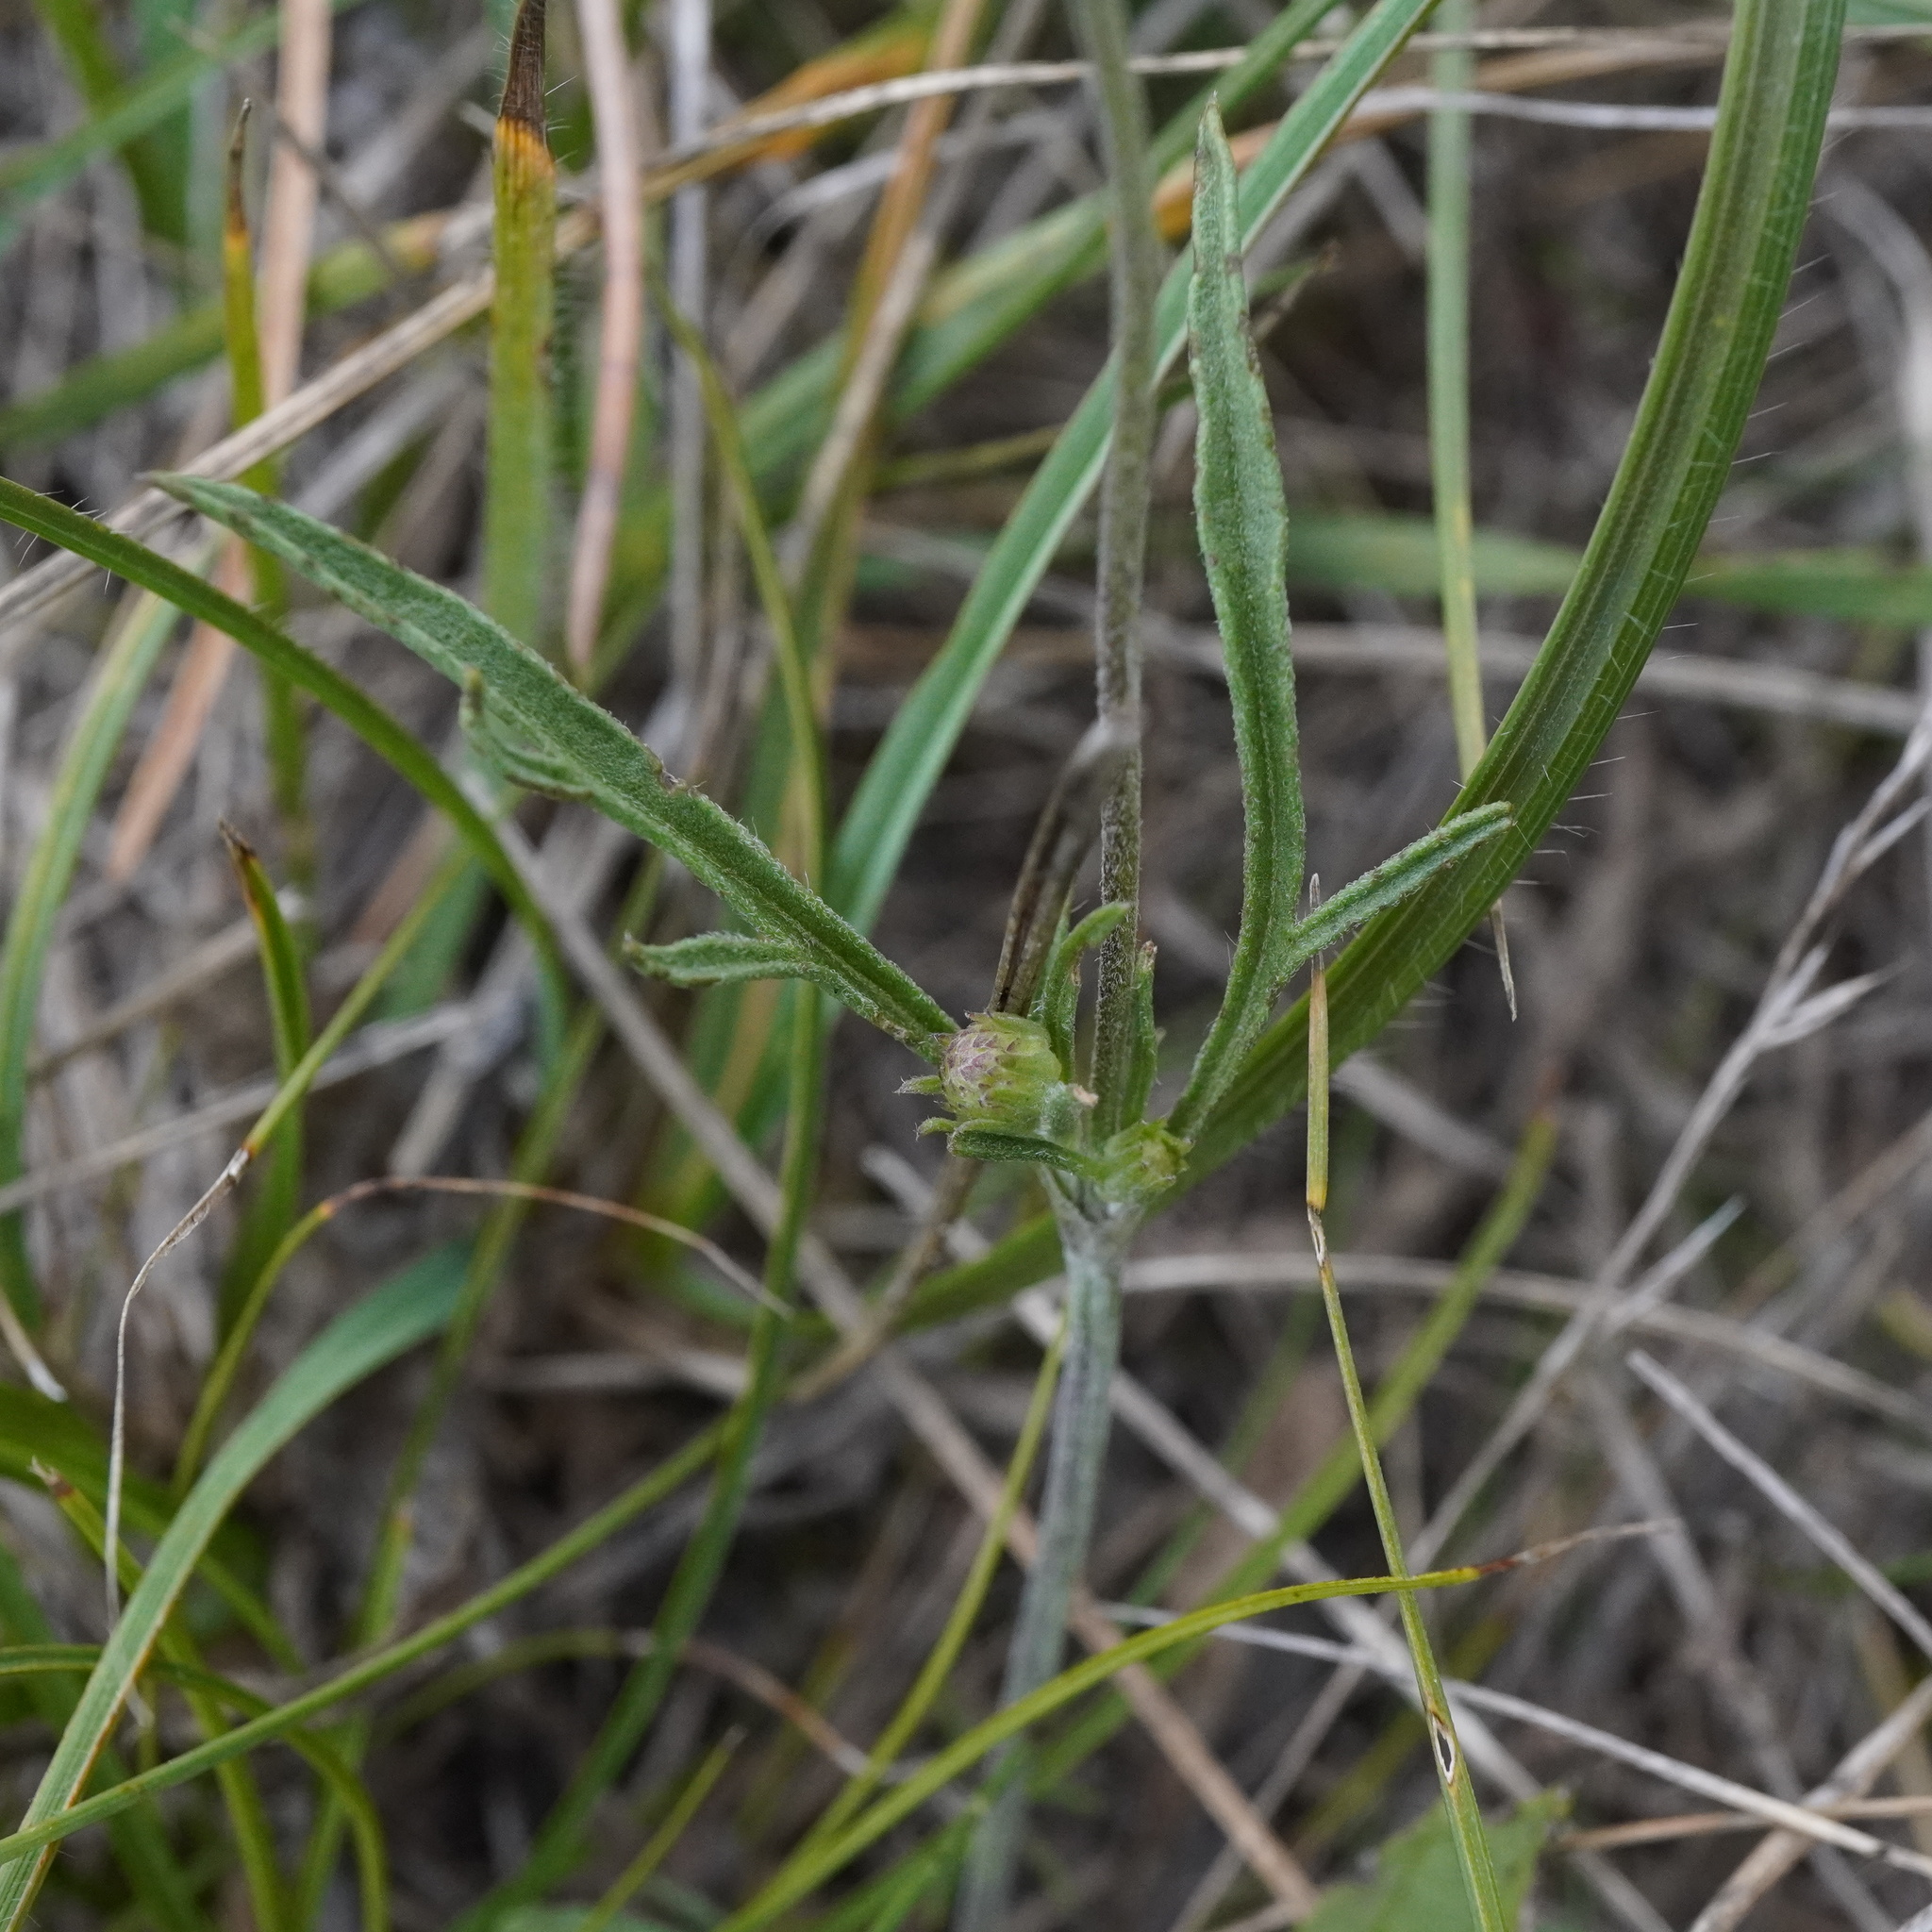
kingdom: Plantae
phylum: Tracheophyta
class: Magnoliopsida
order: Dipsacales
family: Caprifoliaceae
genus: Scabiosa
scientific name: Scabiosa canescens
